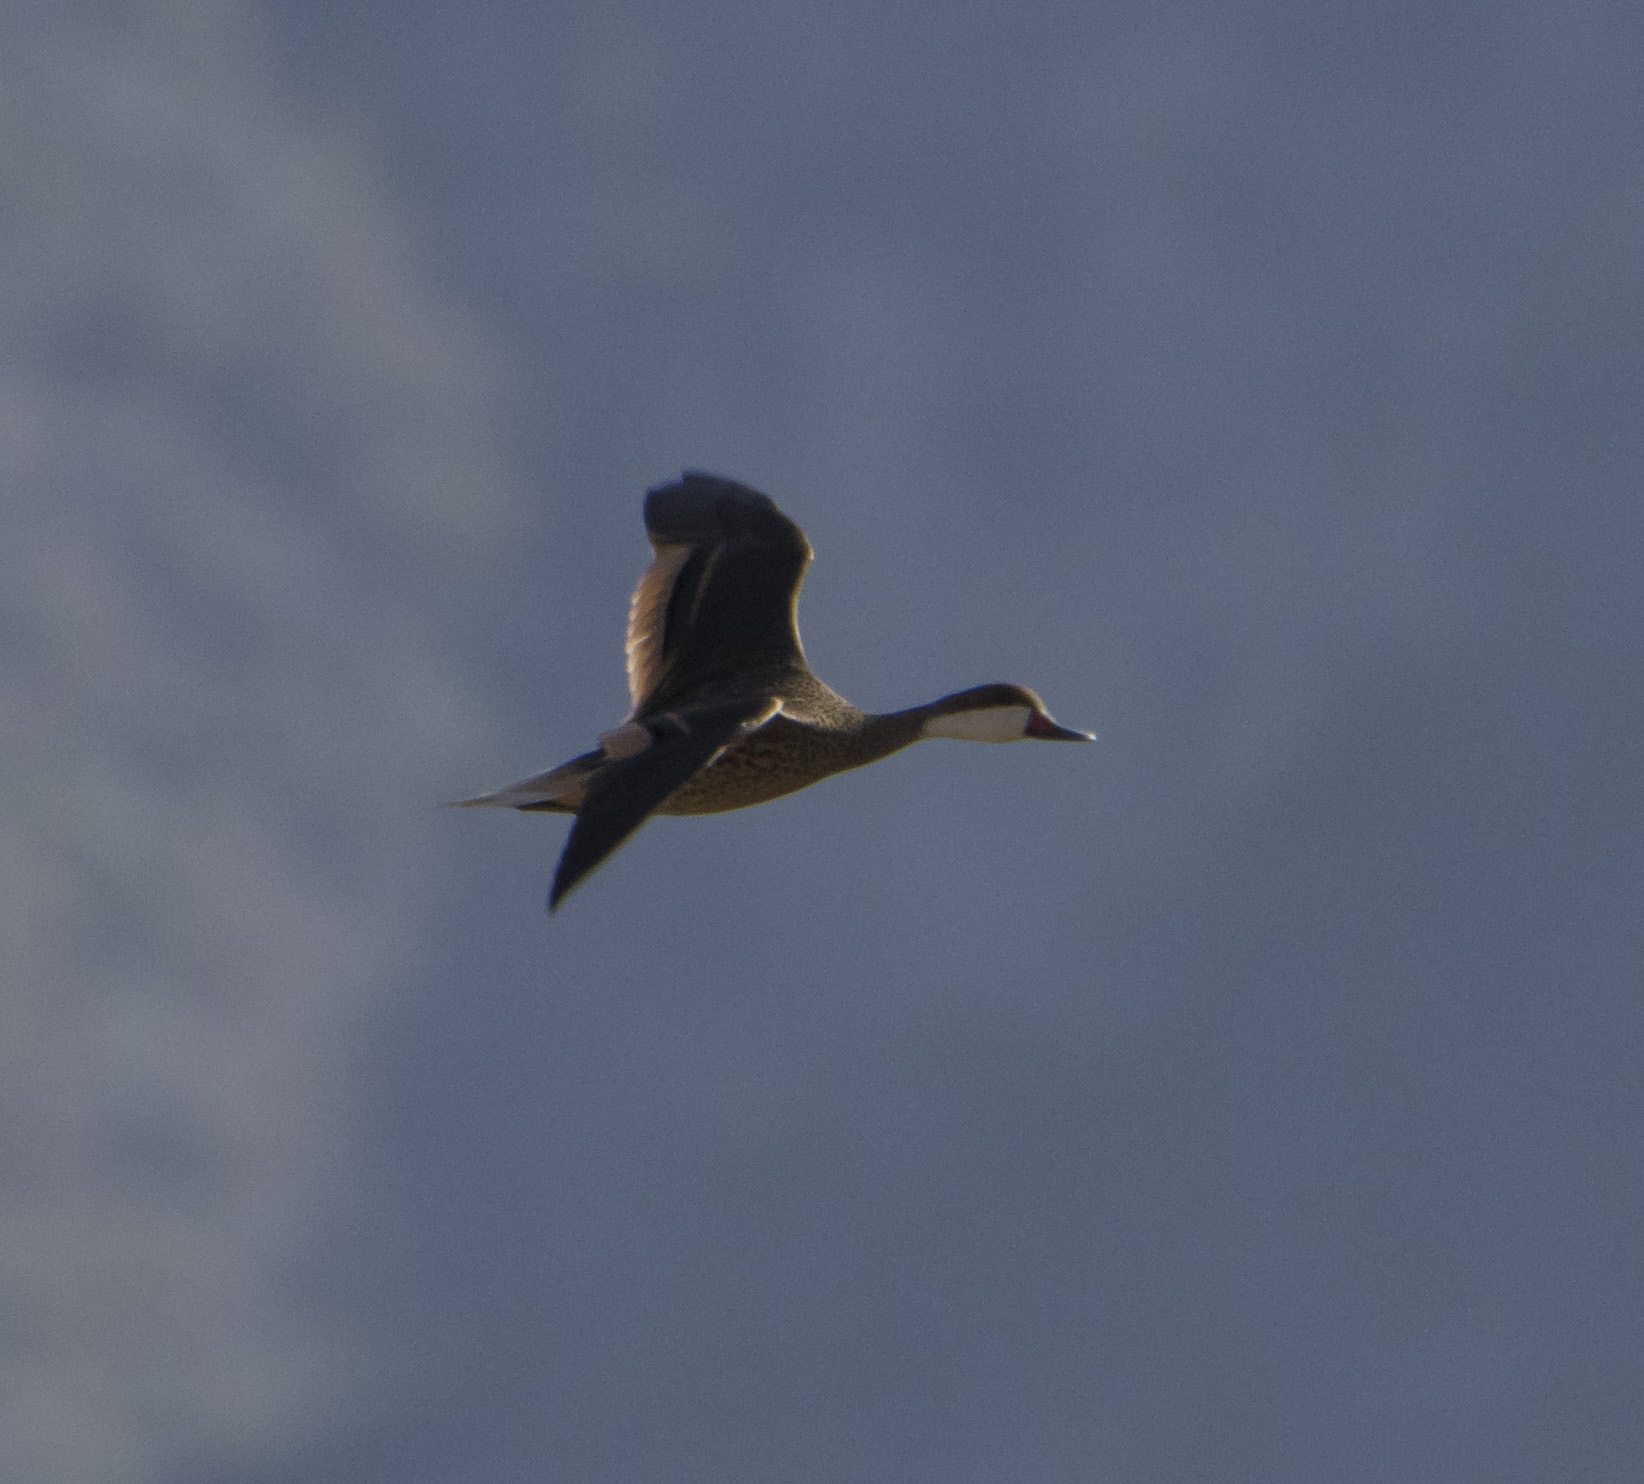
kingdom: Animalia
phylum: Chordata
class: Aves
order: Anseriformes
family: Anatidae
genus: Anas
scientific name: Anas bahamensis
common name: White-cheeked pintail
